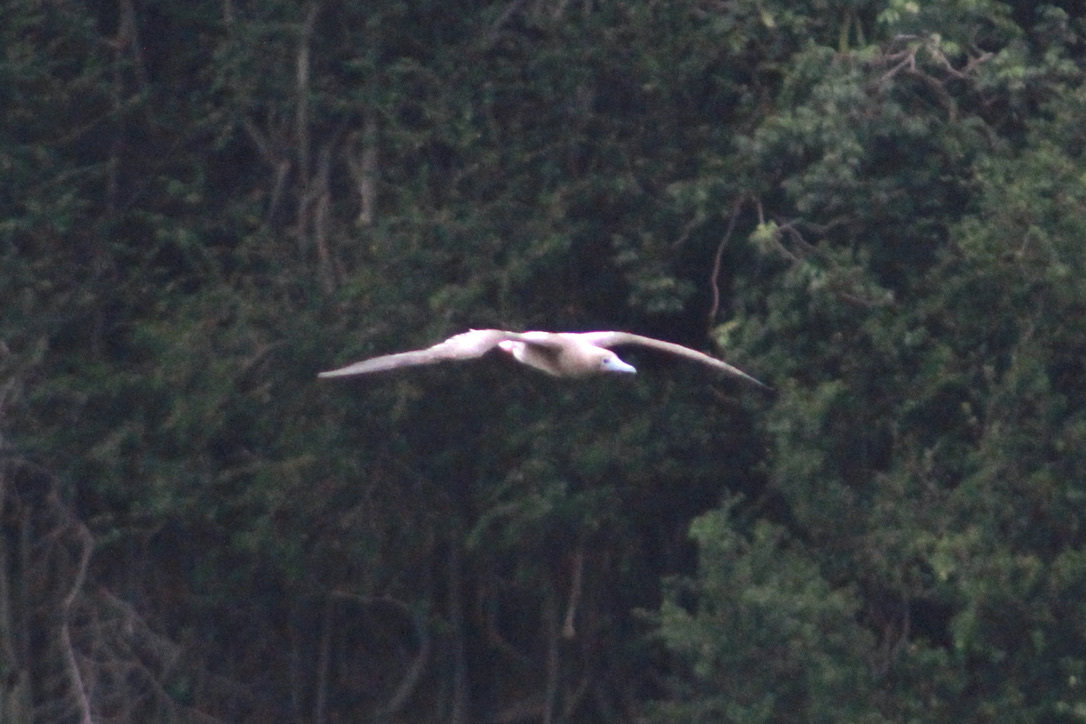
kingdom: Animalia
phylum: Chordata
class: Aves
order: Suliformes
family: Sulidae
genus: Sula
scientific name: Sula sula
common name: Red-footed booby
